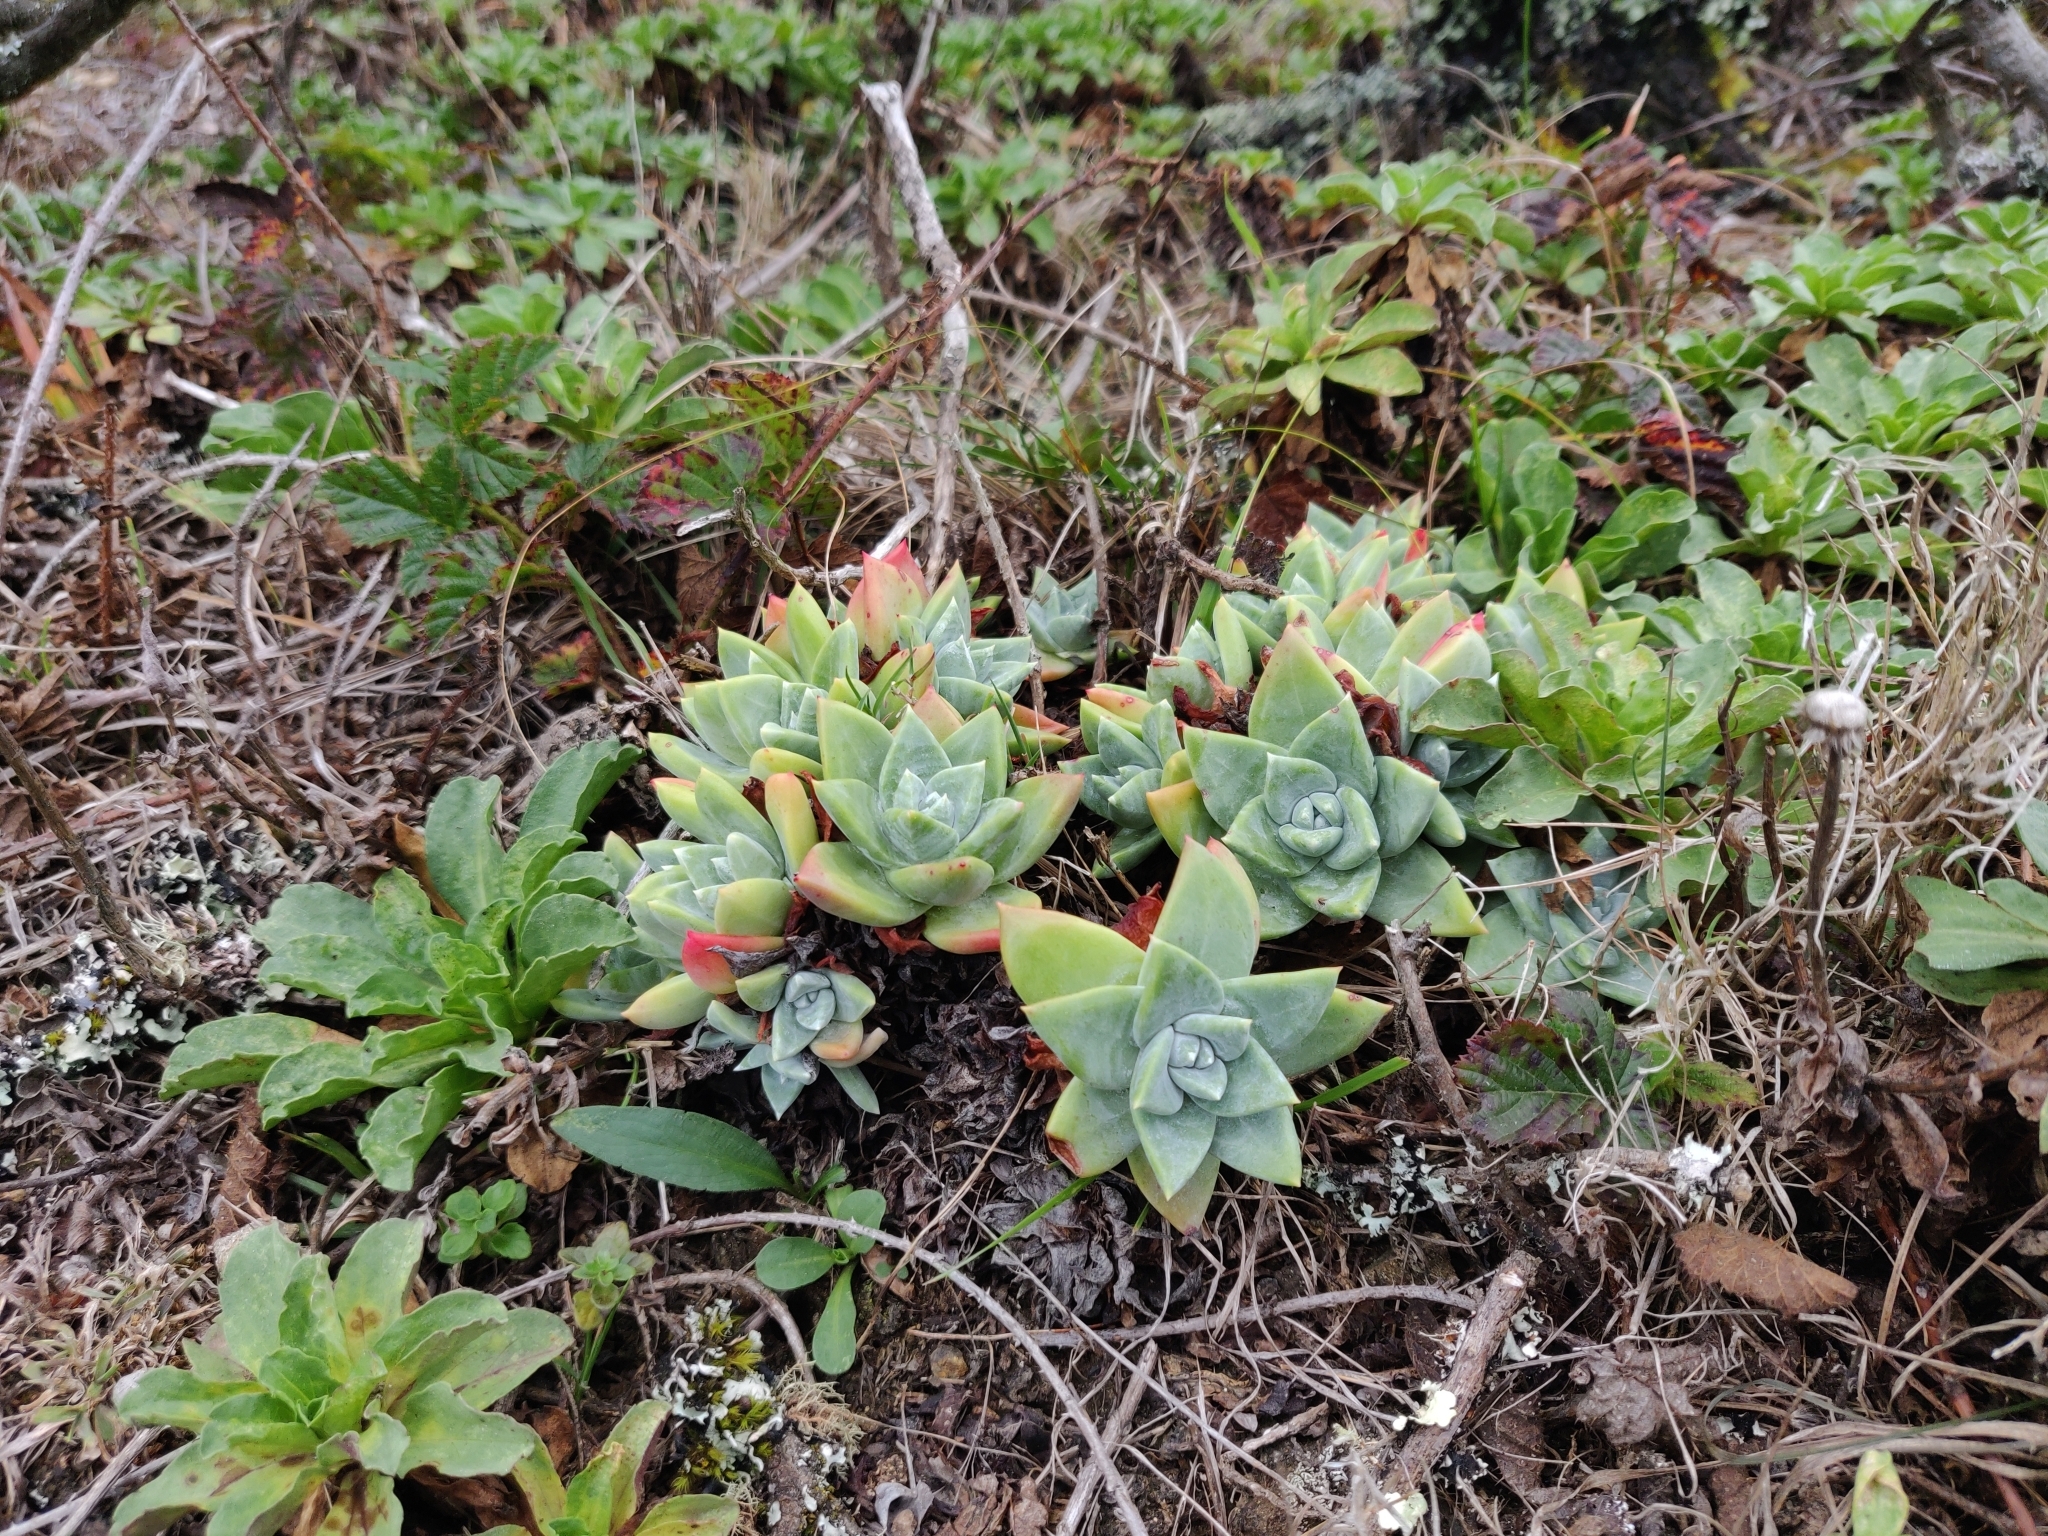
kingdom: Plantae
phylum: Tracheophyta
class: Magnoliopsida
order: Saxifragales
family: Crassulaceae
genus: Dudleya
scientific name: Dudleya farinosa
